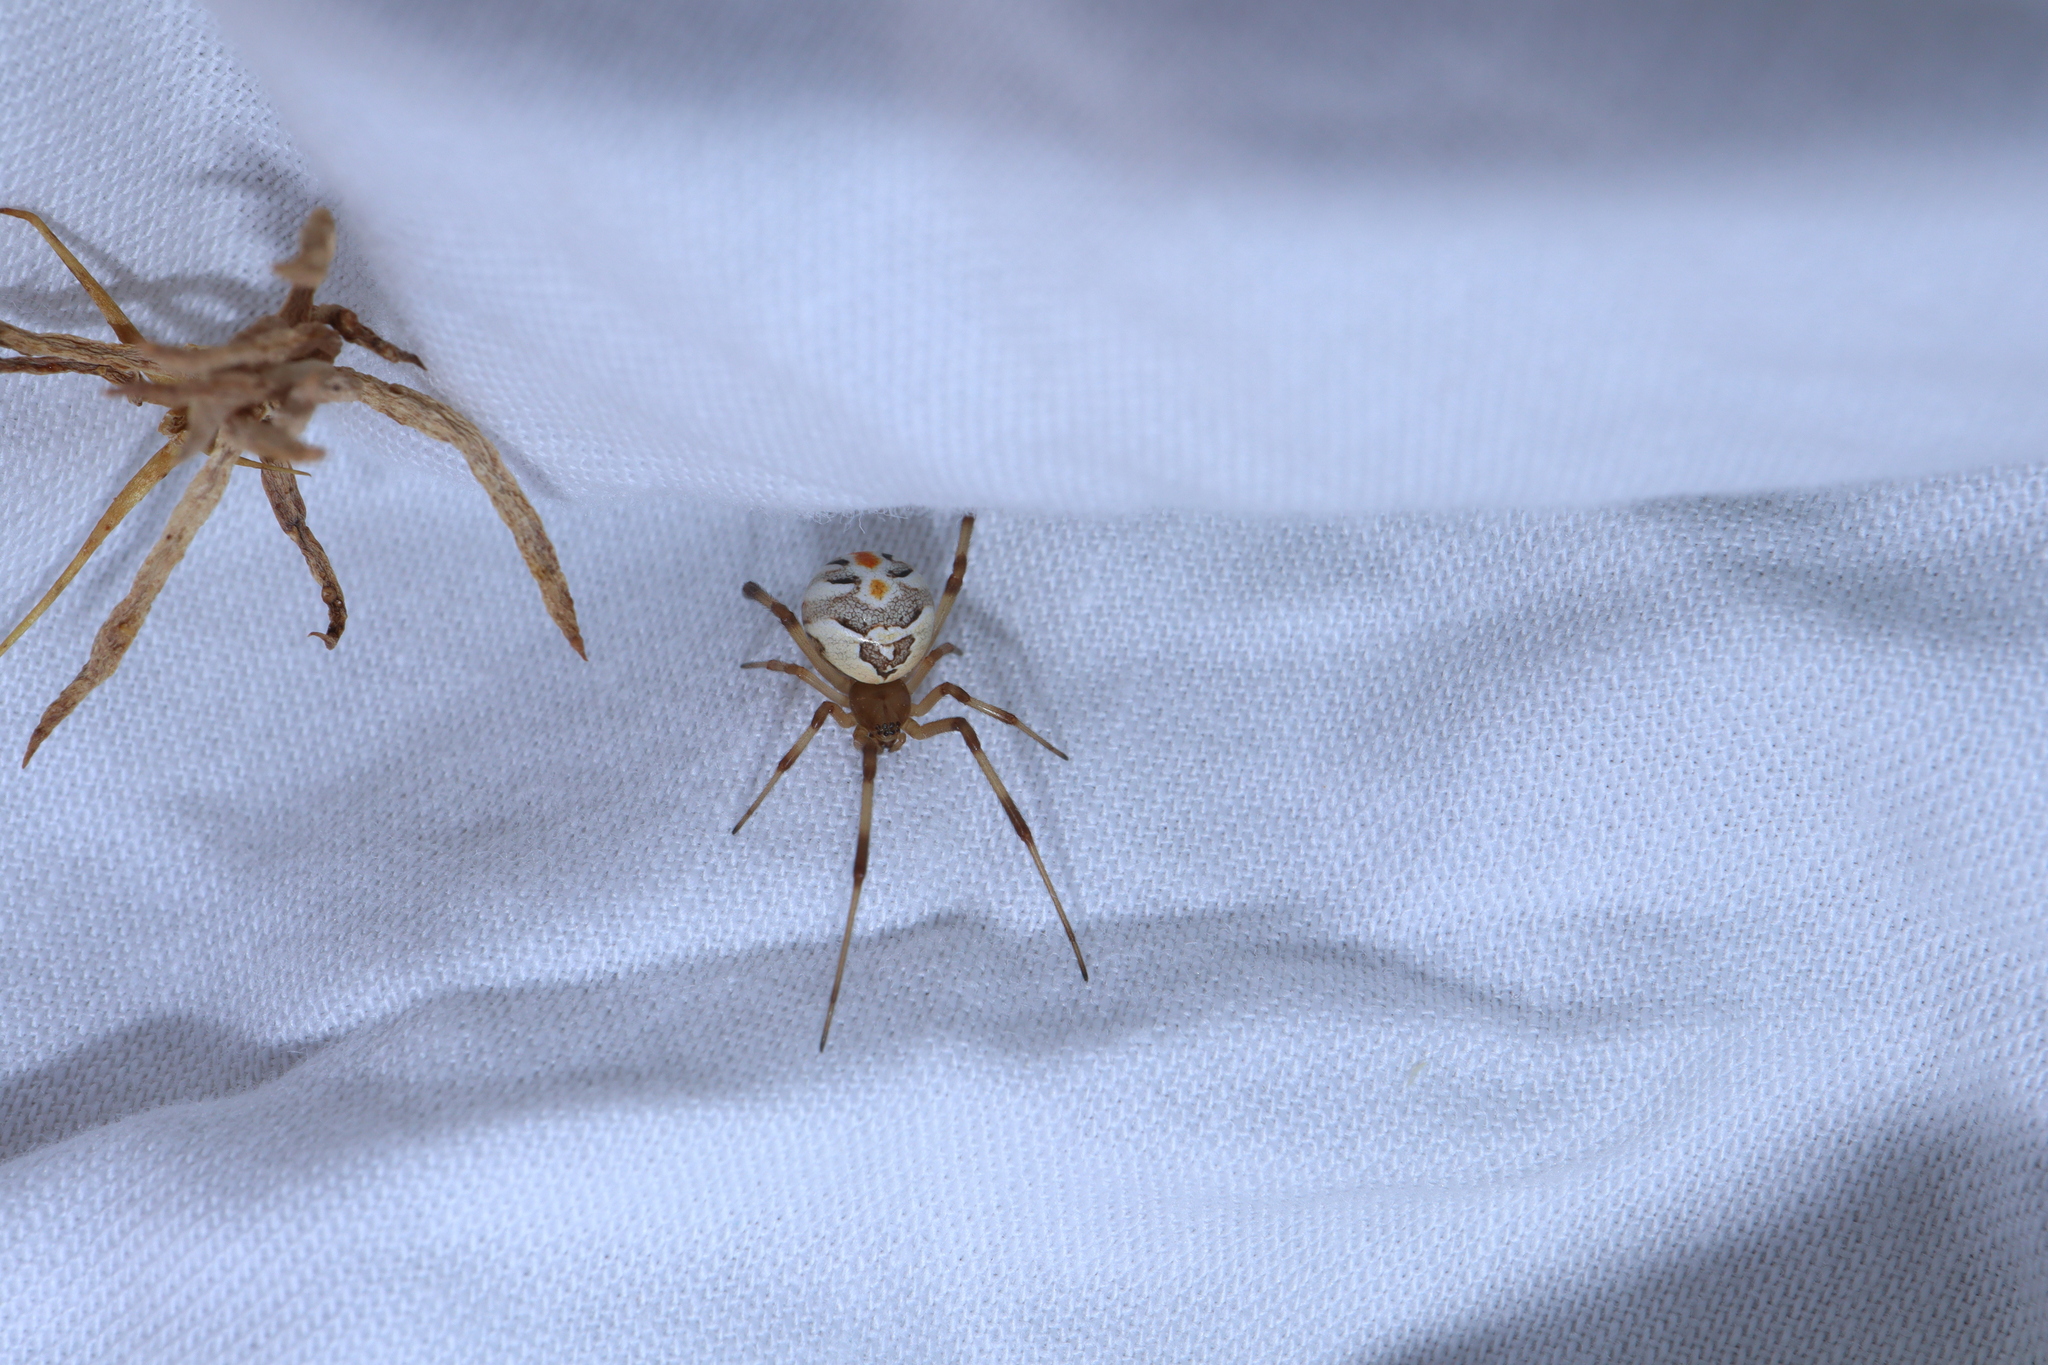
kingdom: Animalia
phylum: Arthropoda
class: Arachnida
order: Araneae
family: Theridiidae
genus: Latrodectus
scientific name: Latrodectus hasselti
